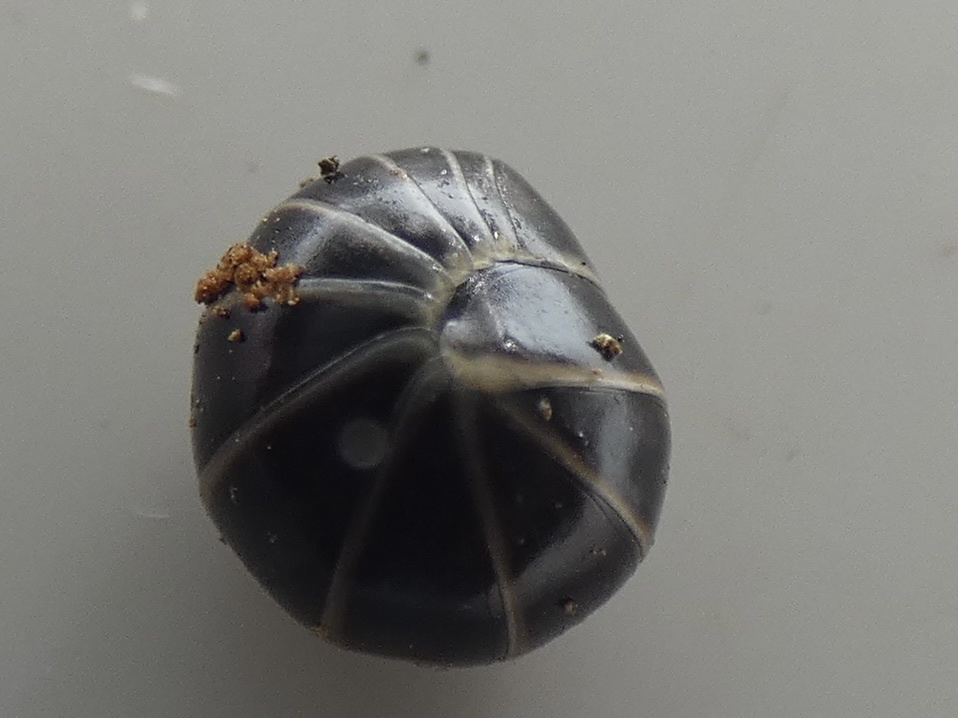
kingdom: Animalia
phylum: Arthropoda
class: Diplopoda
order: Glomerida
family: Glomeridae
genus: Glomeris
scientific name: Glomeris marginata
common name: Bordered pill millipede
